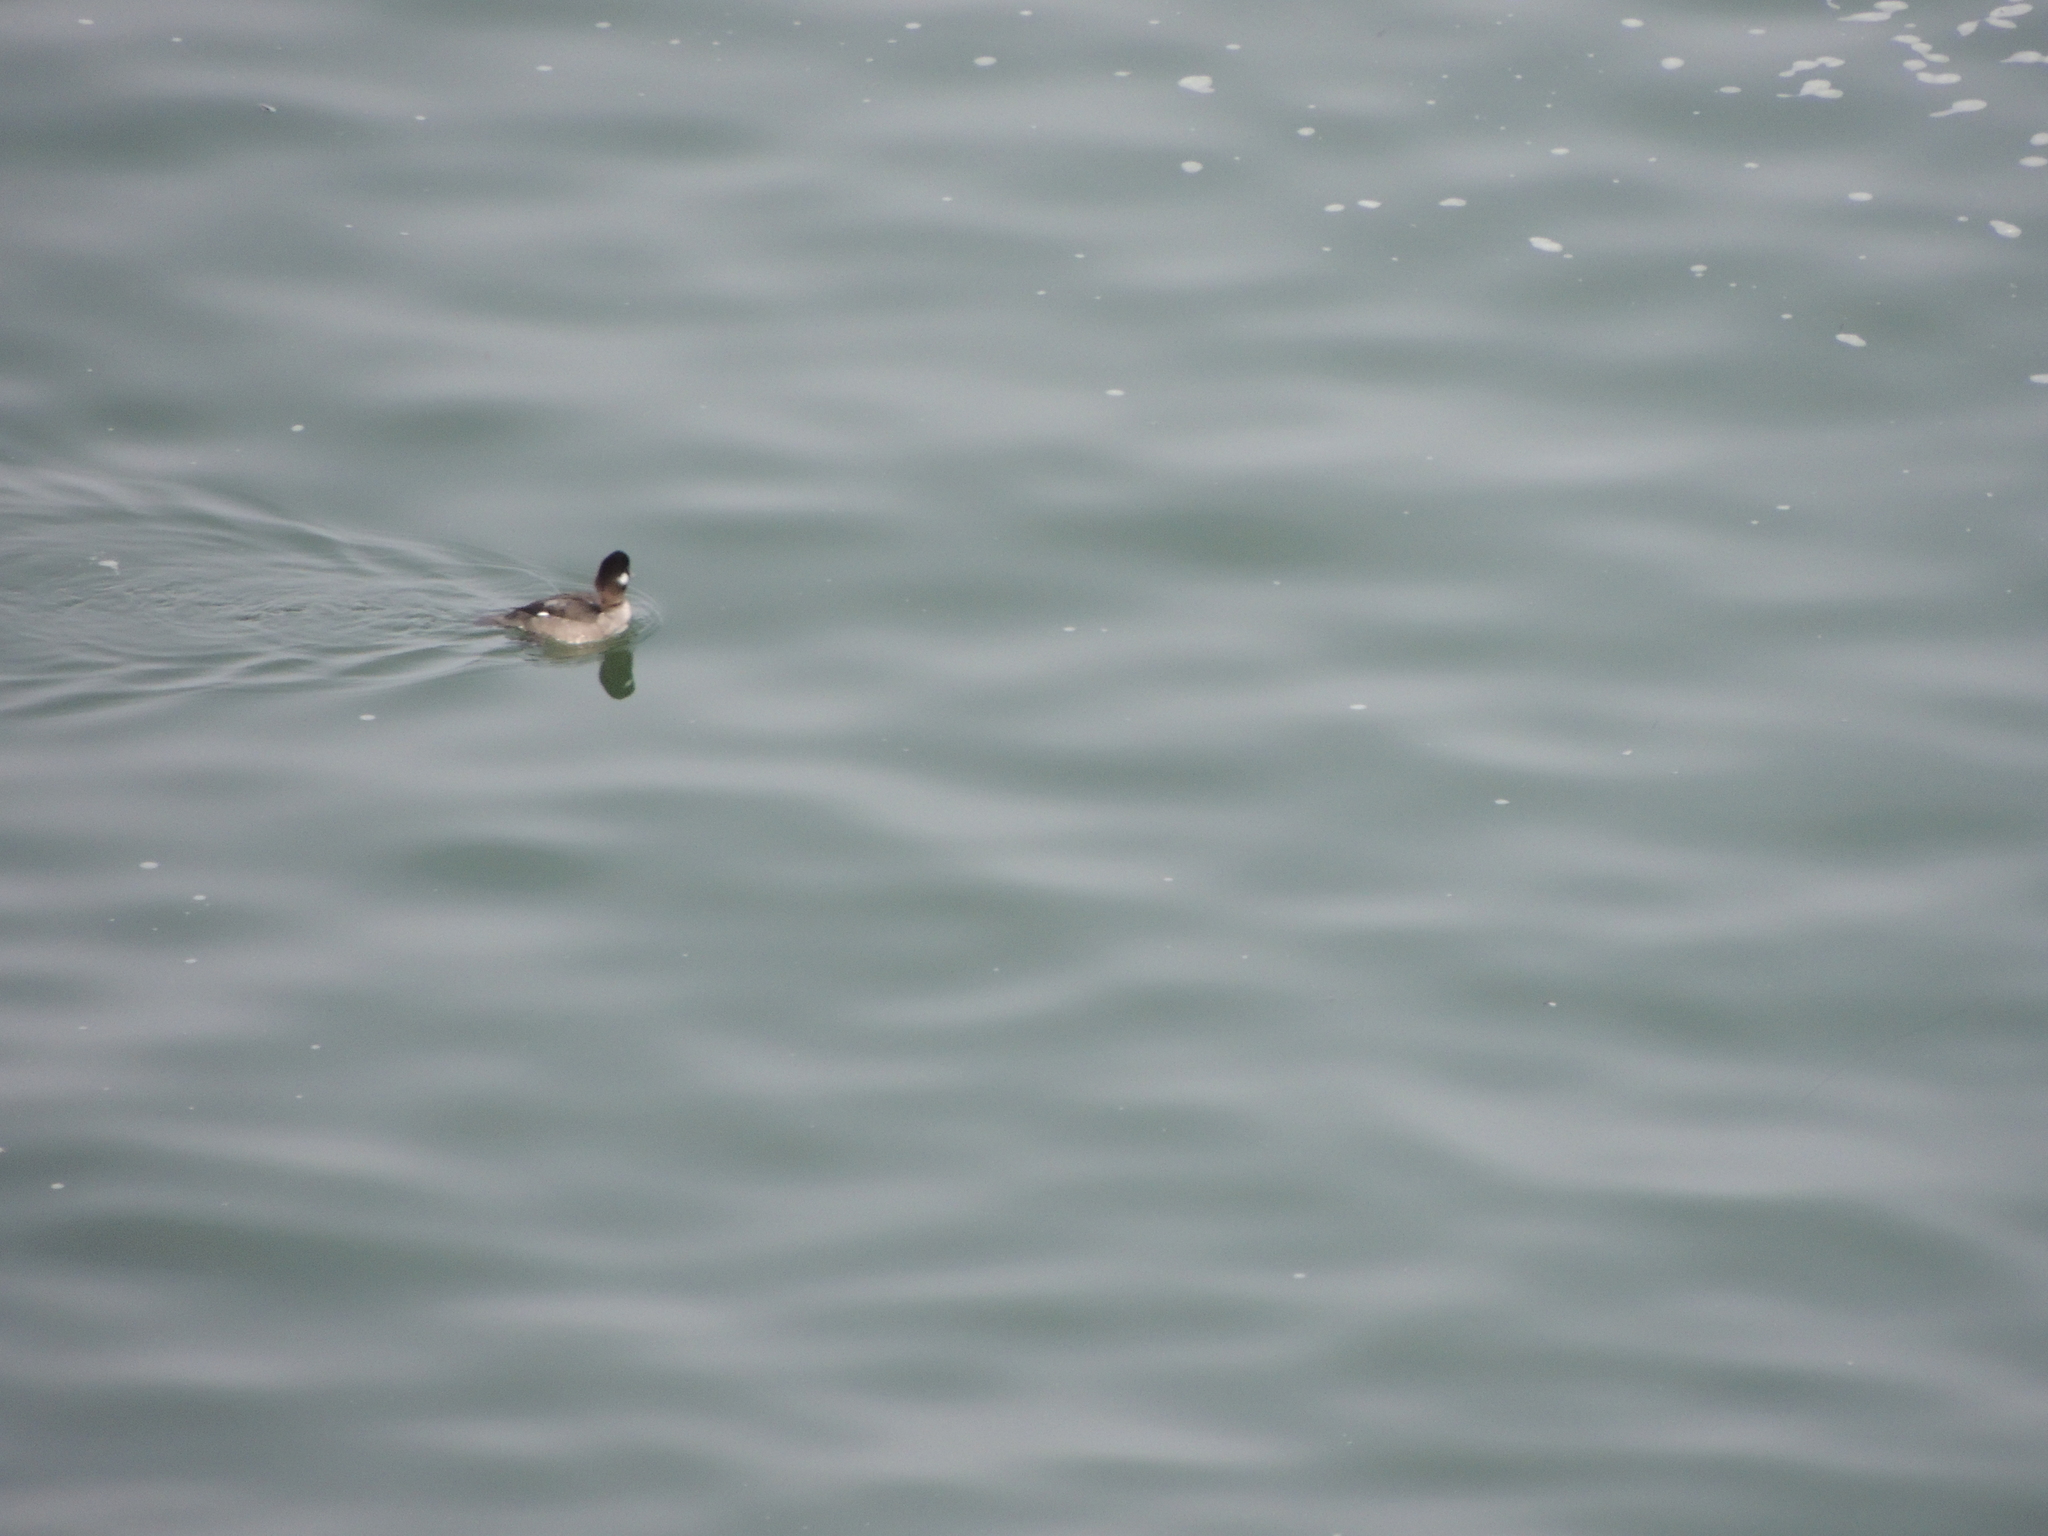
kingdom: Animalia
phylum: Chordata
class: Aves
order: Anseriformes
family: Anatidae
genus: Bucephala
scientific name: Bucephala albeola
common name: Bufflehead
